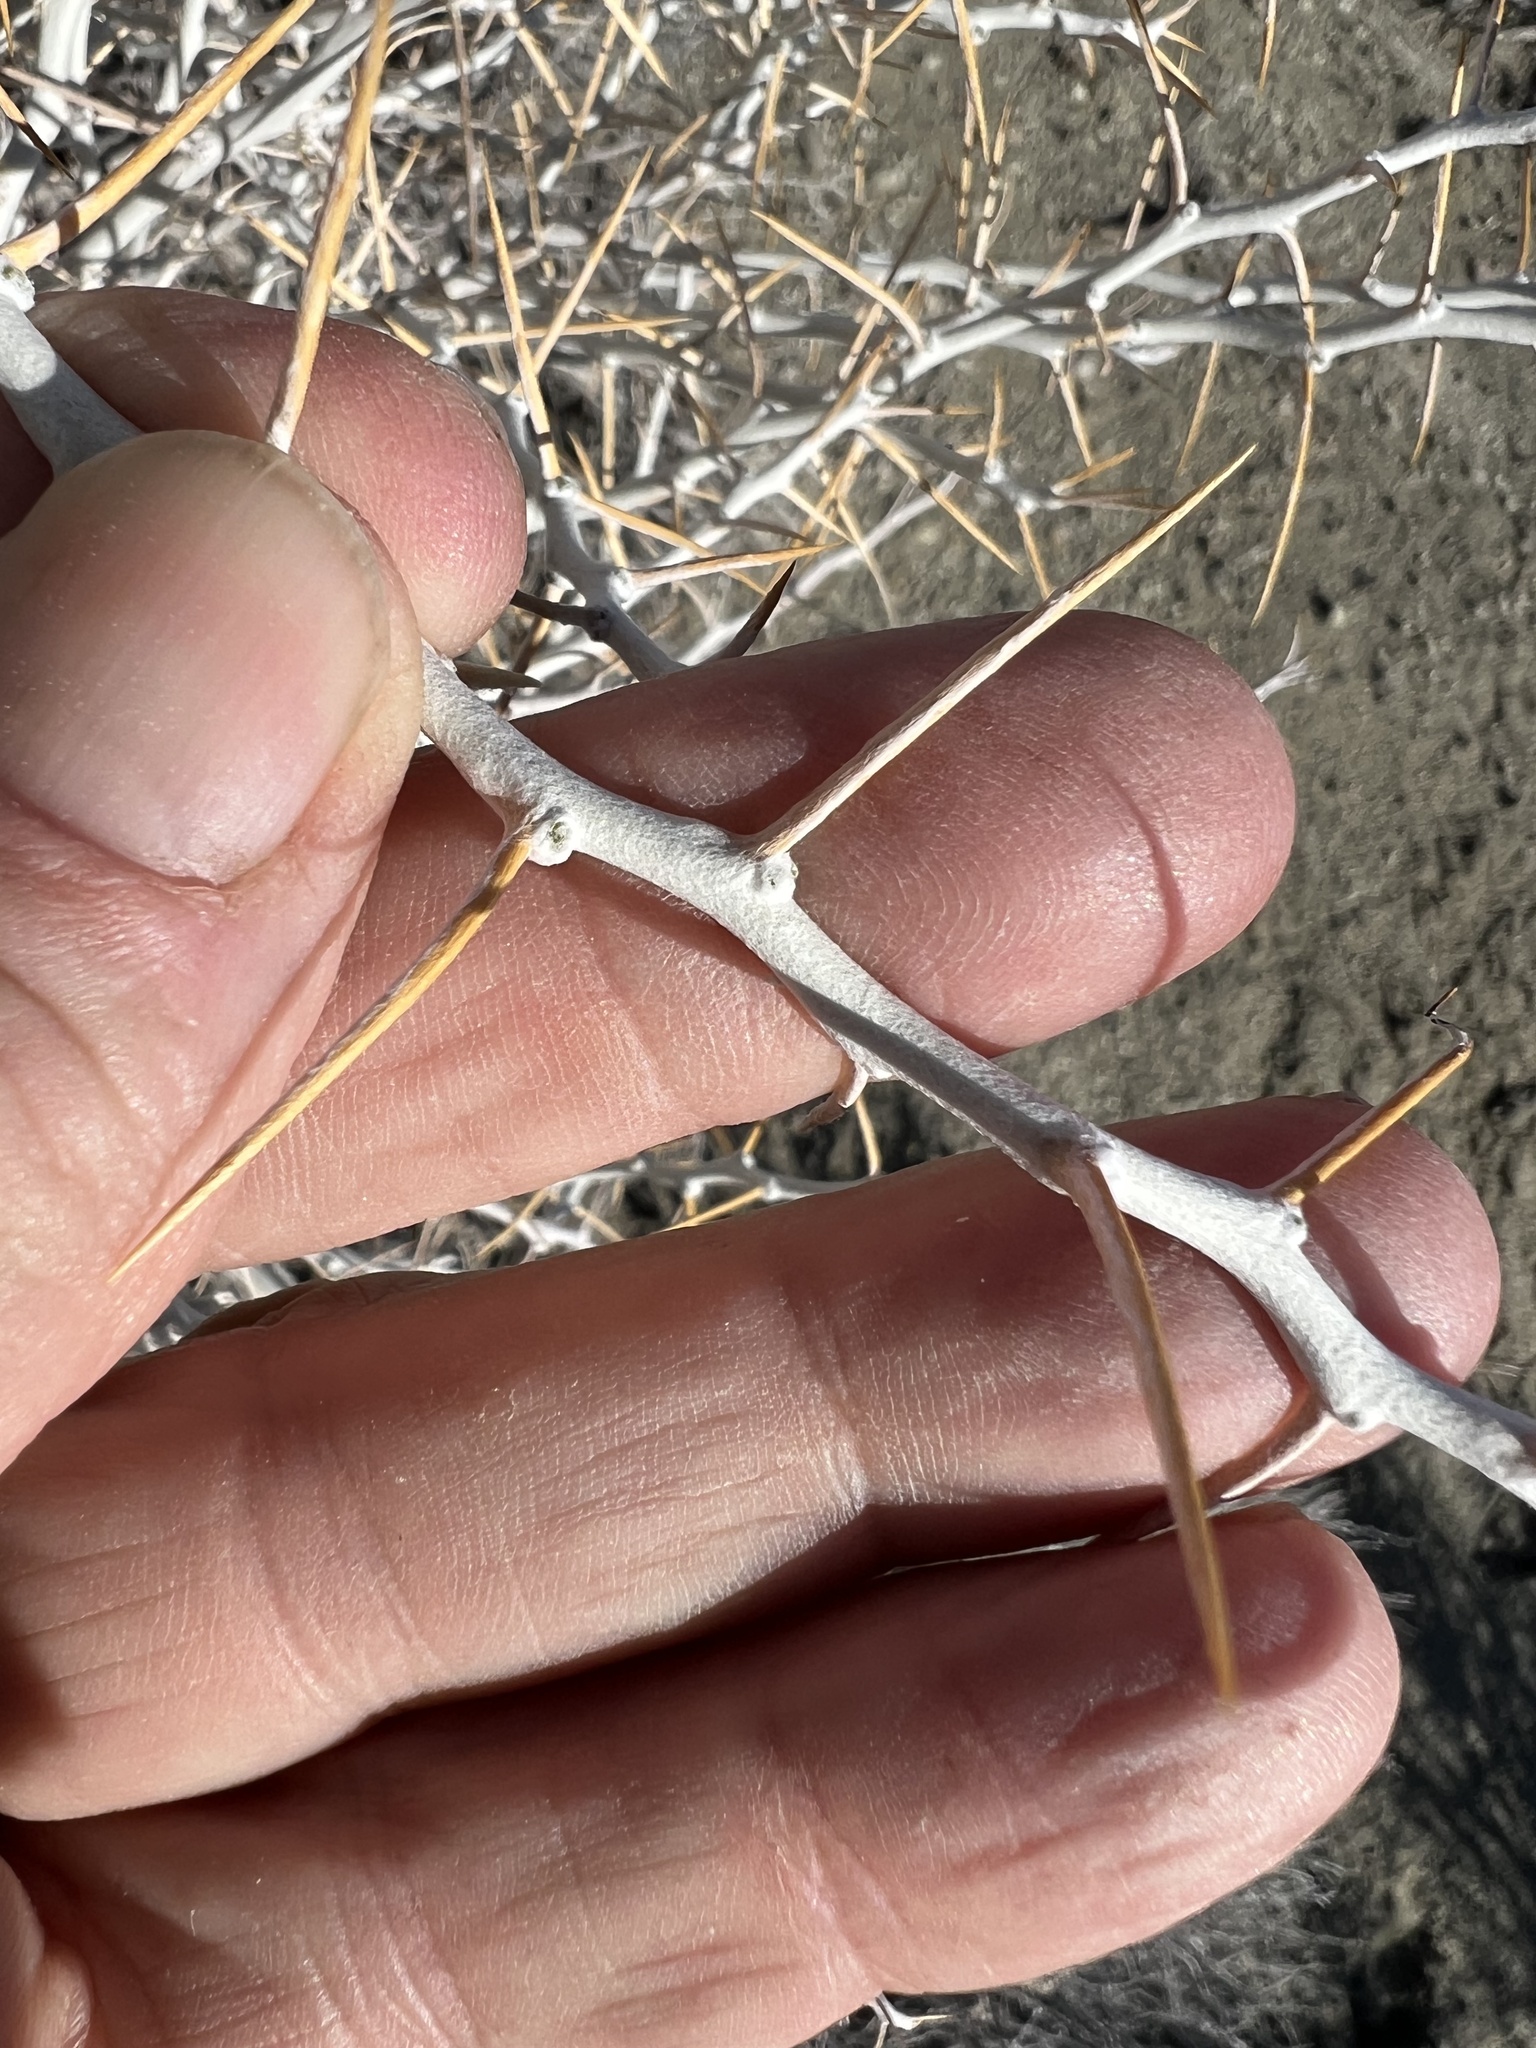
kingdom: Plantae
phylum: Tracheophyta
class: Magnoliopsida
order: Asterales
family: Asteraceae
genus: Tetradymia
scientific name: Tetradymia axillaris
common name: Long-spine horsebrush
